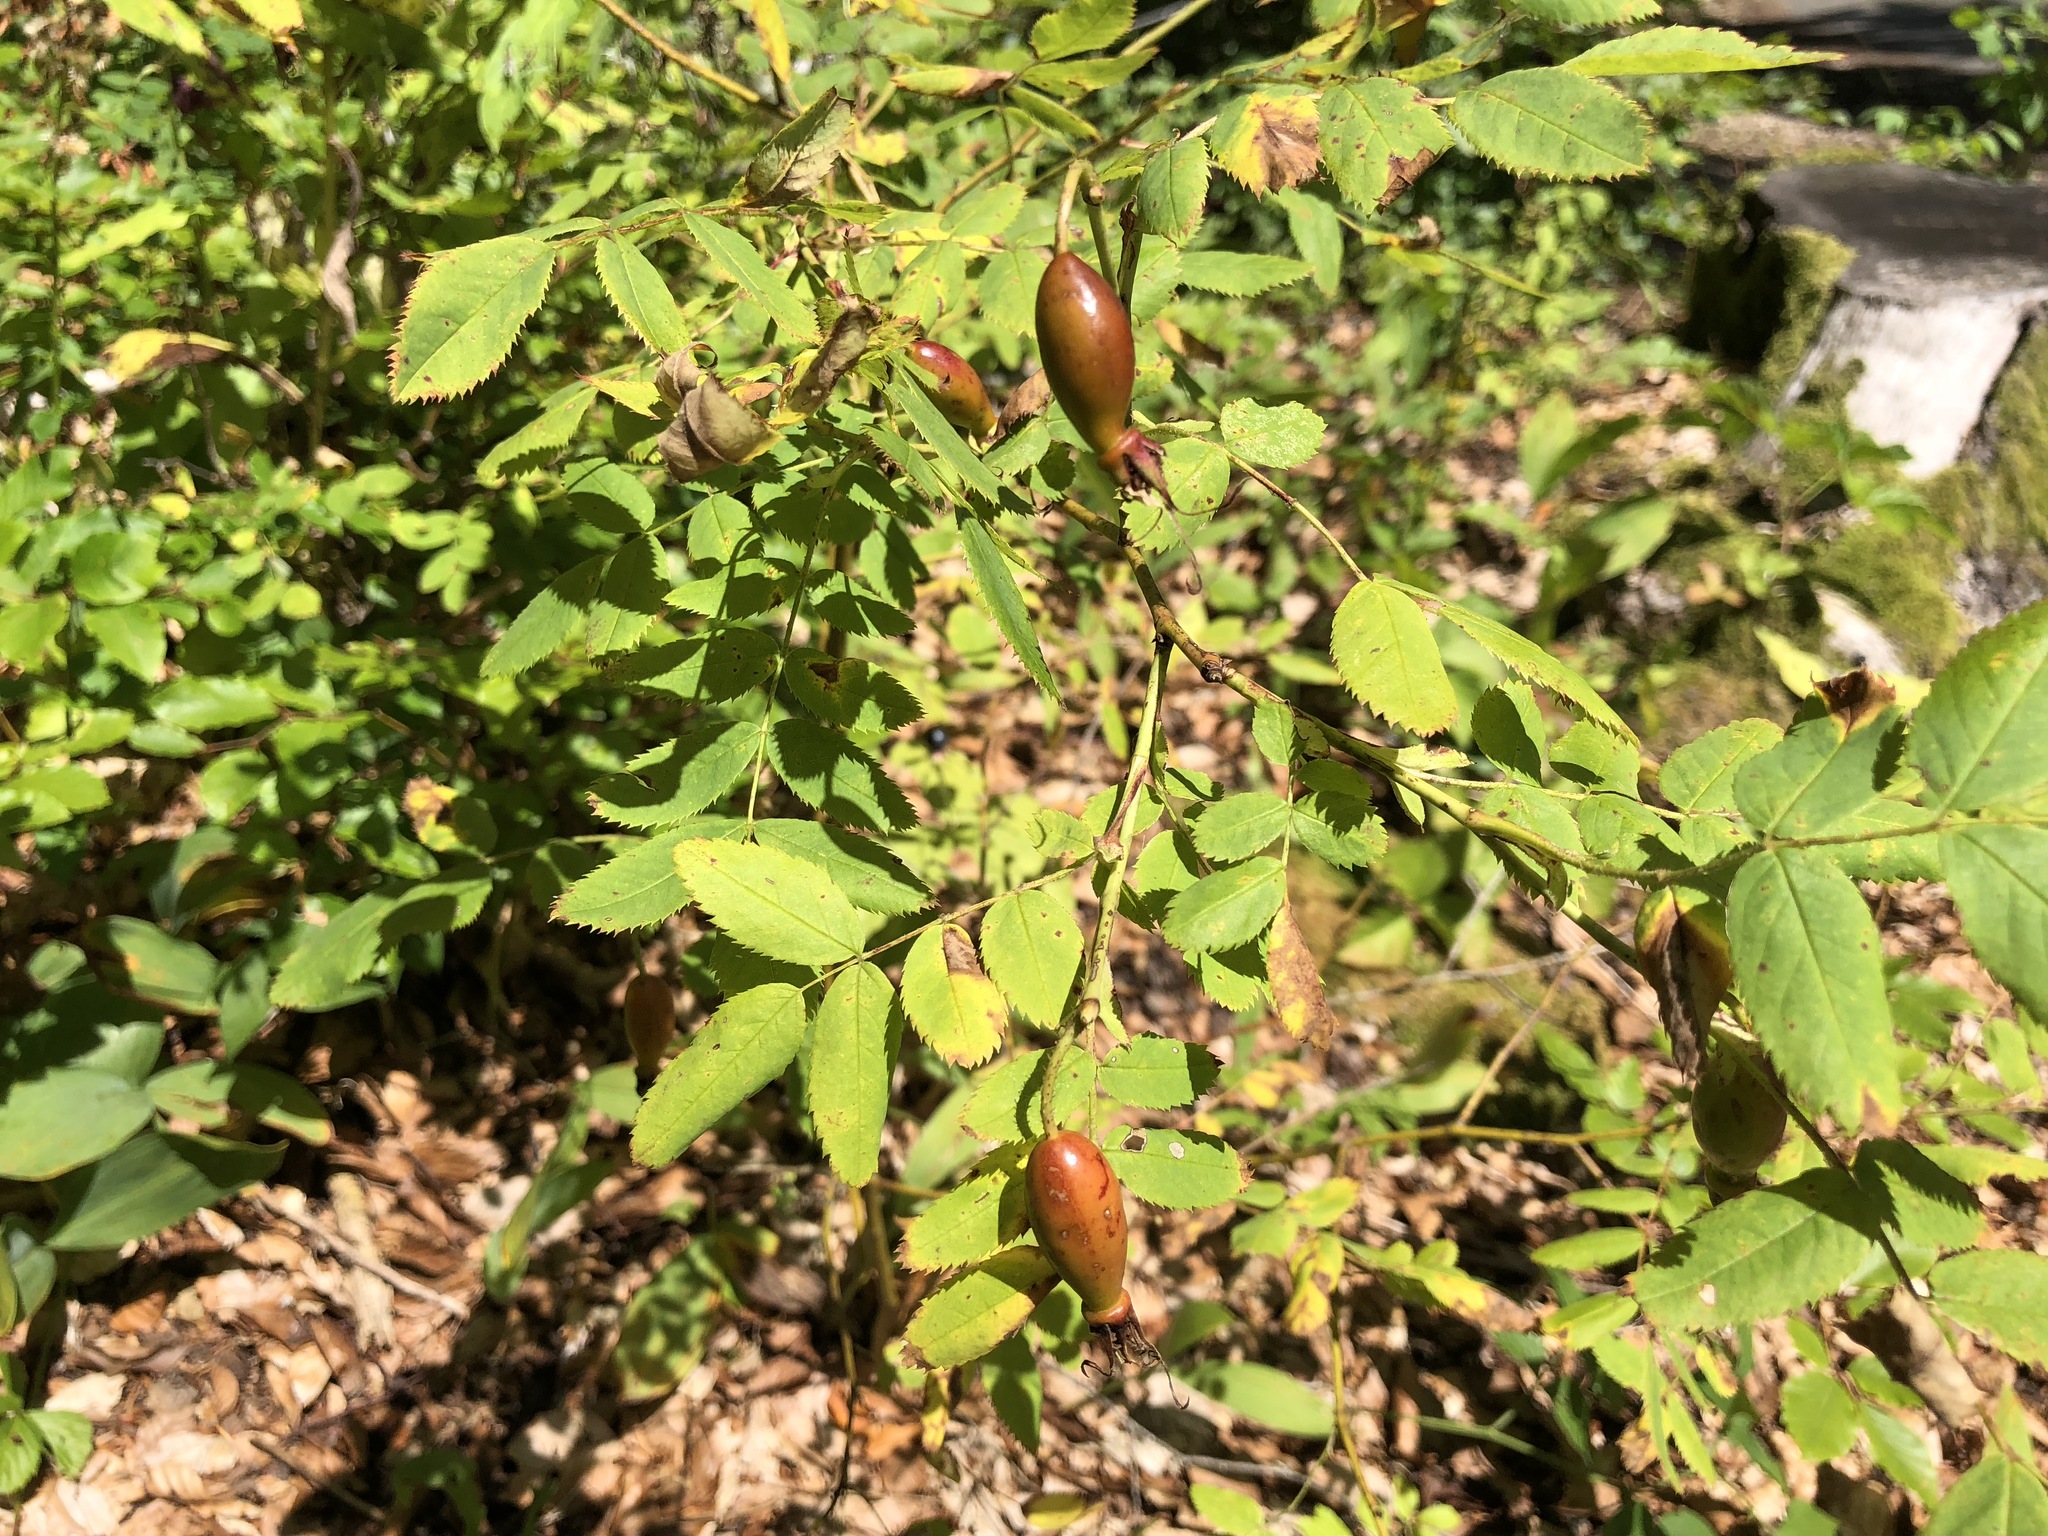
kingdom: Plantae
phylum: Tracheophyta
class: Magnoliopsida
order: Rosales
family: Rosaceae
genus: Rosa
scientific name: Rosa pendulina
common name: Alpine rose
